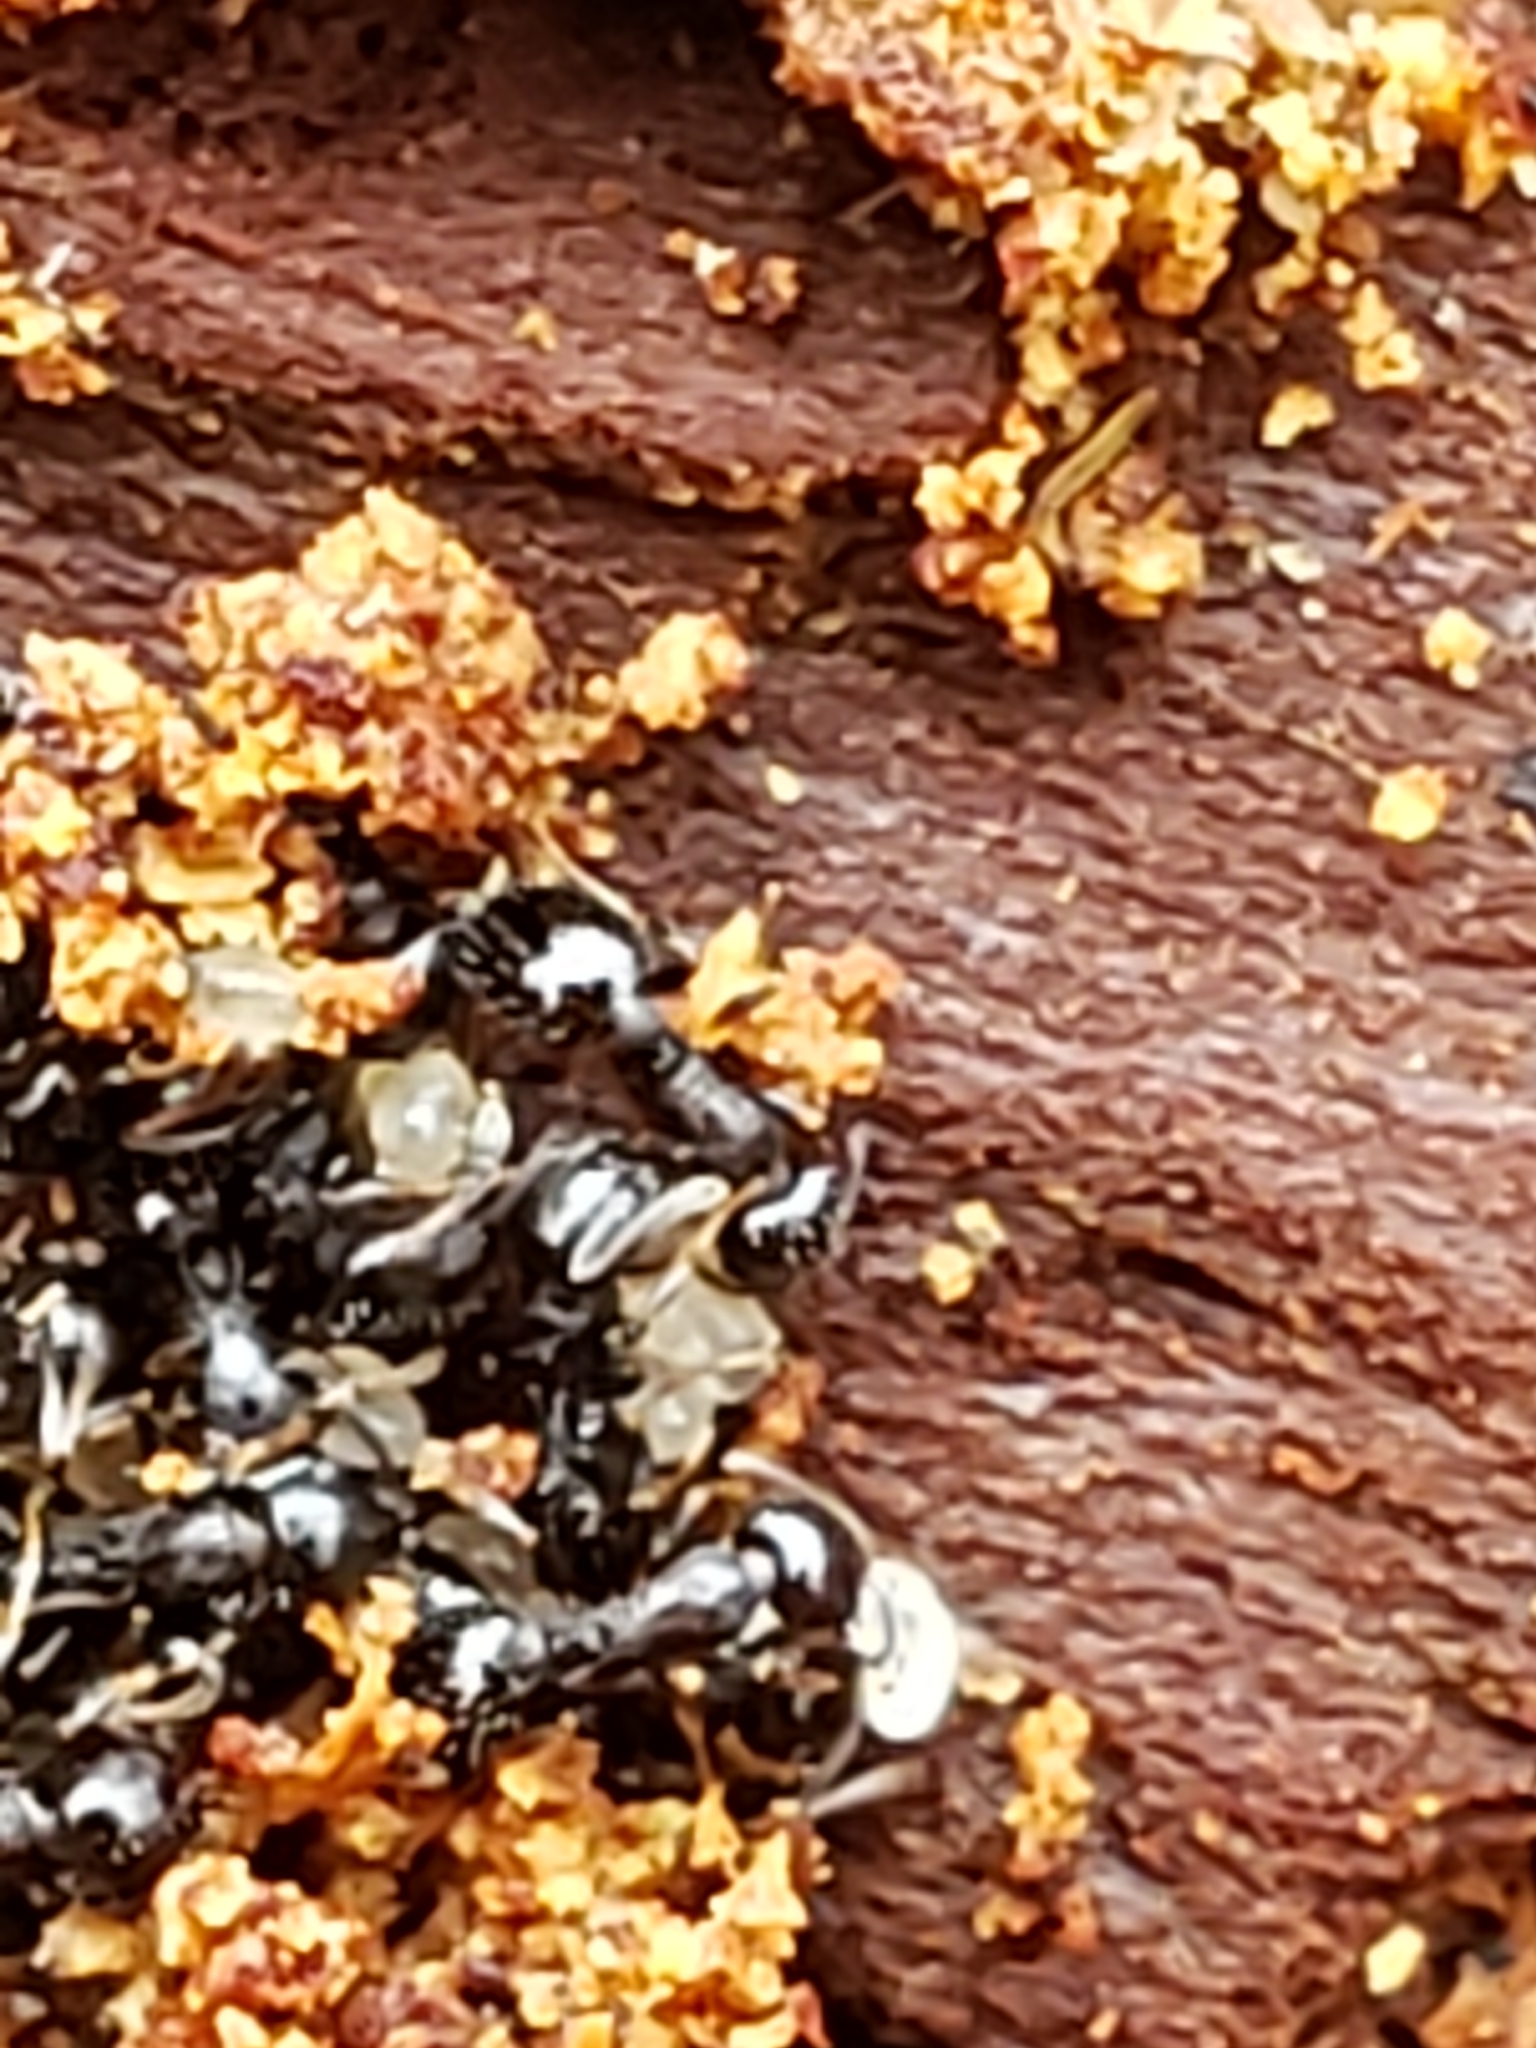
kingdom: Animalia
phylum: Arthropoda
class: Insecta
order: Hymenoptera
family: Formicidae
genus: Temnothorax
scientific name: Temnothorax longispinosus
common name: Long-spined acorn ant
